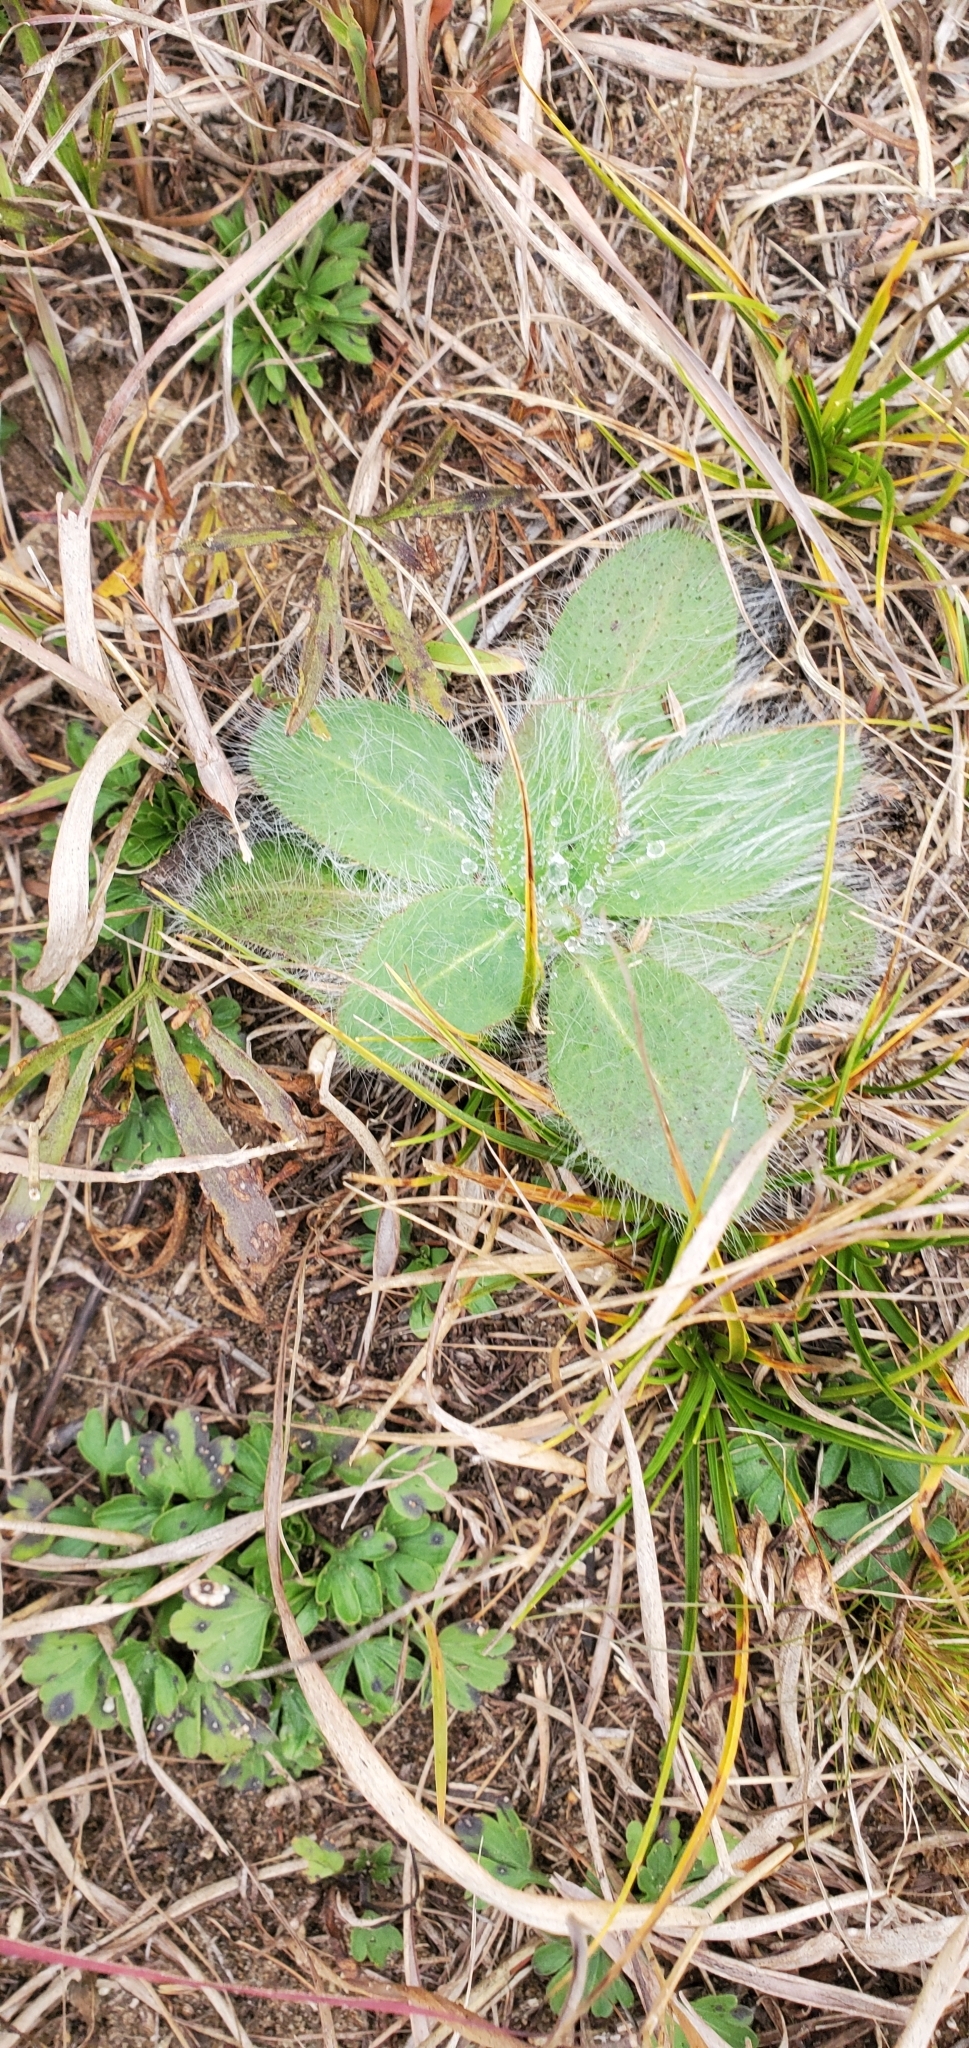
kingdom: Plantae
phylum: Tracheophyta
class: Magnoliopsida
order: Asterales
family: Asteraceae
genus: Hieracium
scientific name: Hieracium gronovii
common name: Beaked hawkweed
